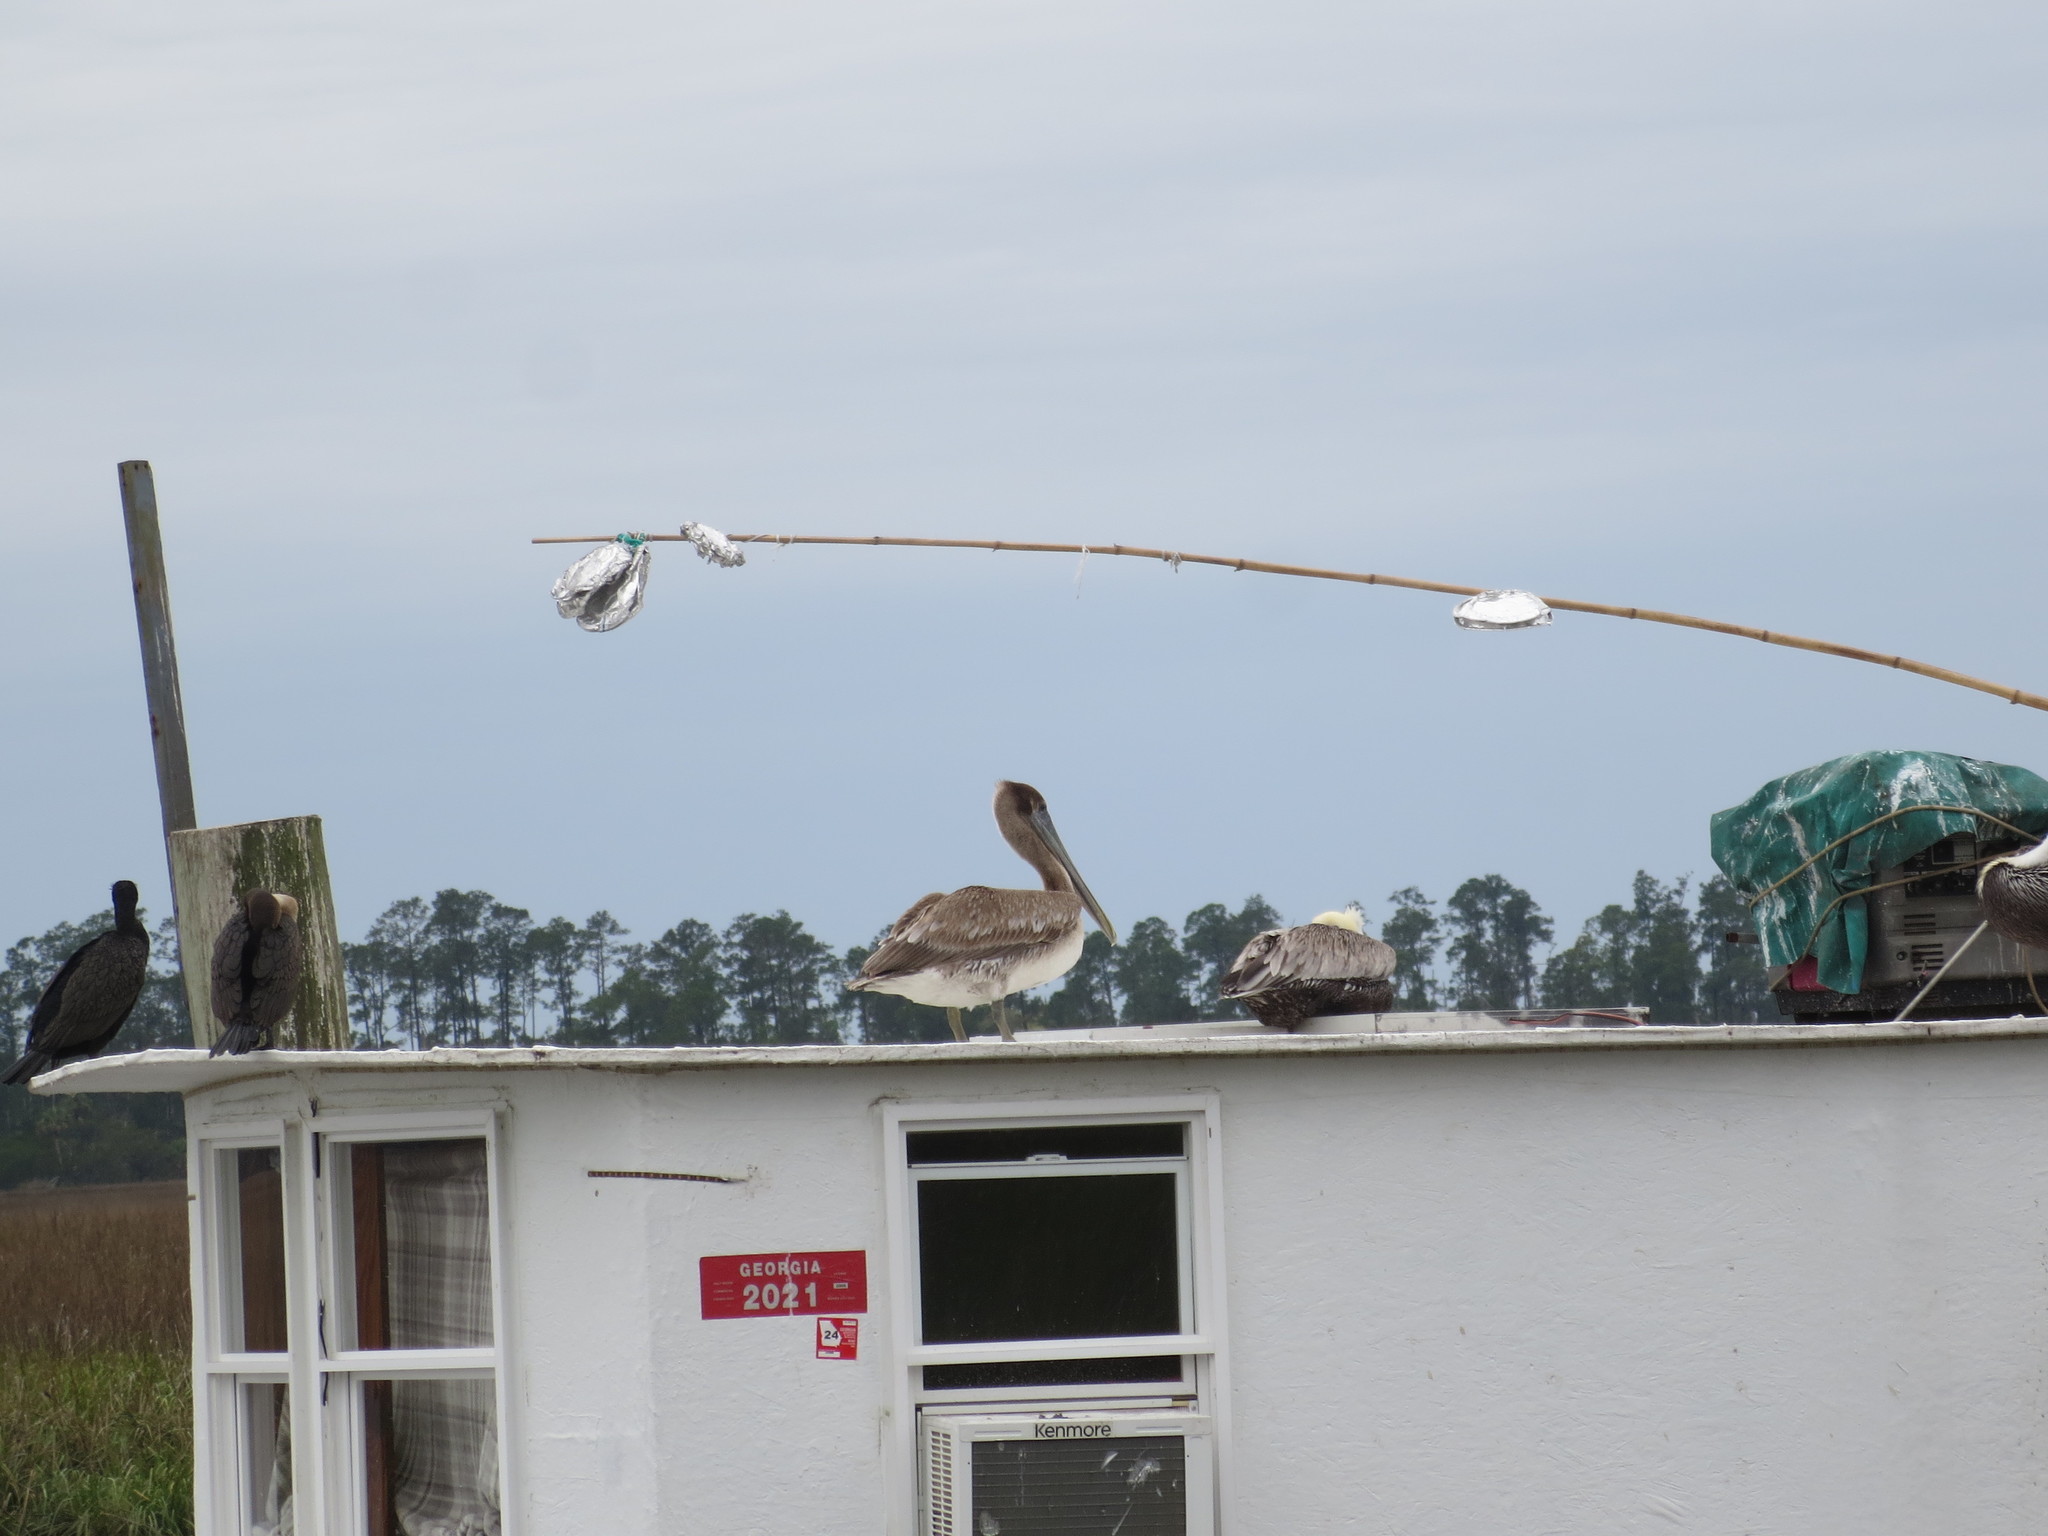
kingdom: Animalia
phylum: Chordata
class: Aves
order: Pelecaniformes
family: Pelecanidae
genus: Pelecanus
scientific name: Pelecanus occidentalis
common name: Brown pelican
